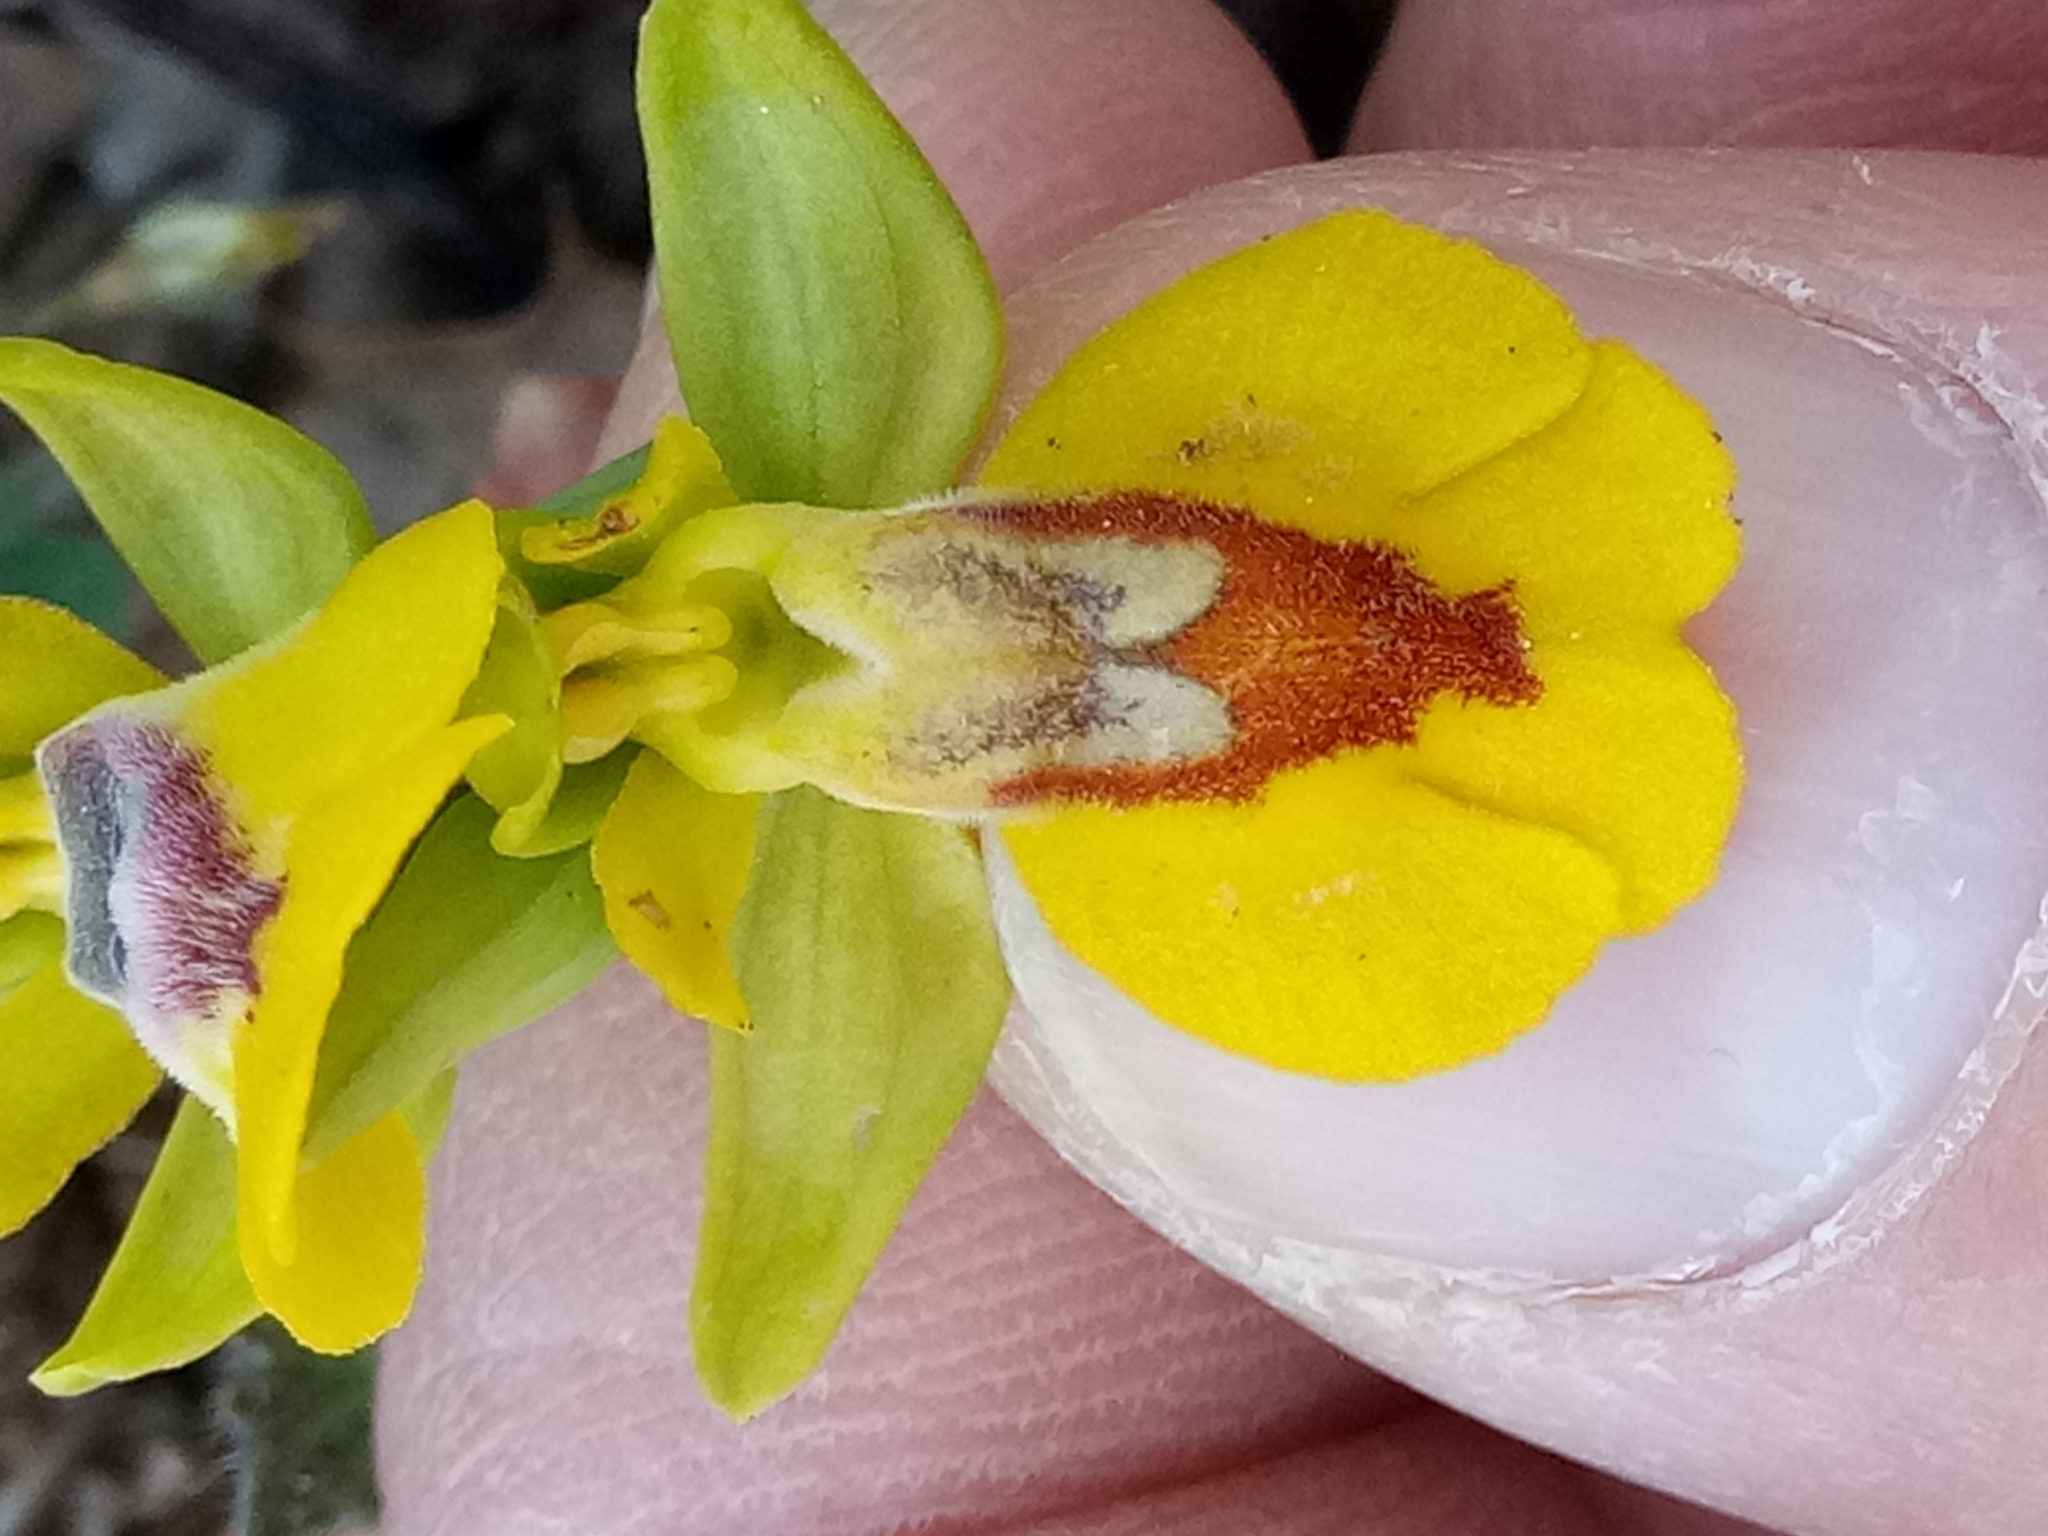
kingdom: Plantae
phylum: Tracheophyta
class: Liliopsida
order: Asparagales
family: Orchidaceae
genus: Ophrys
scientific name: Ophrys lutea
